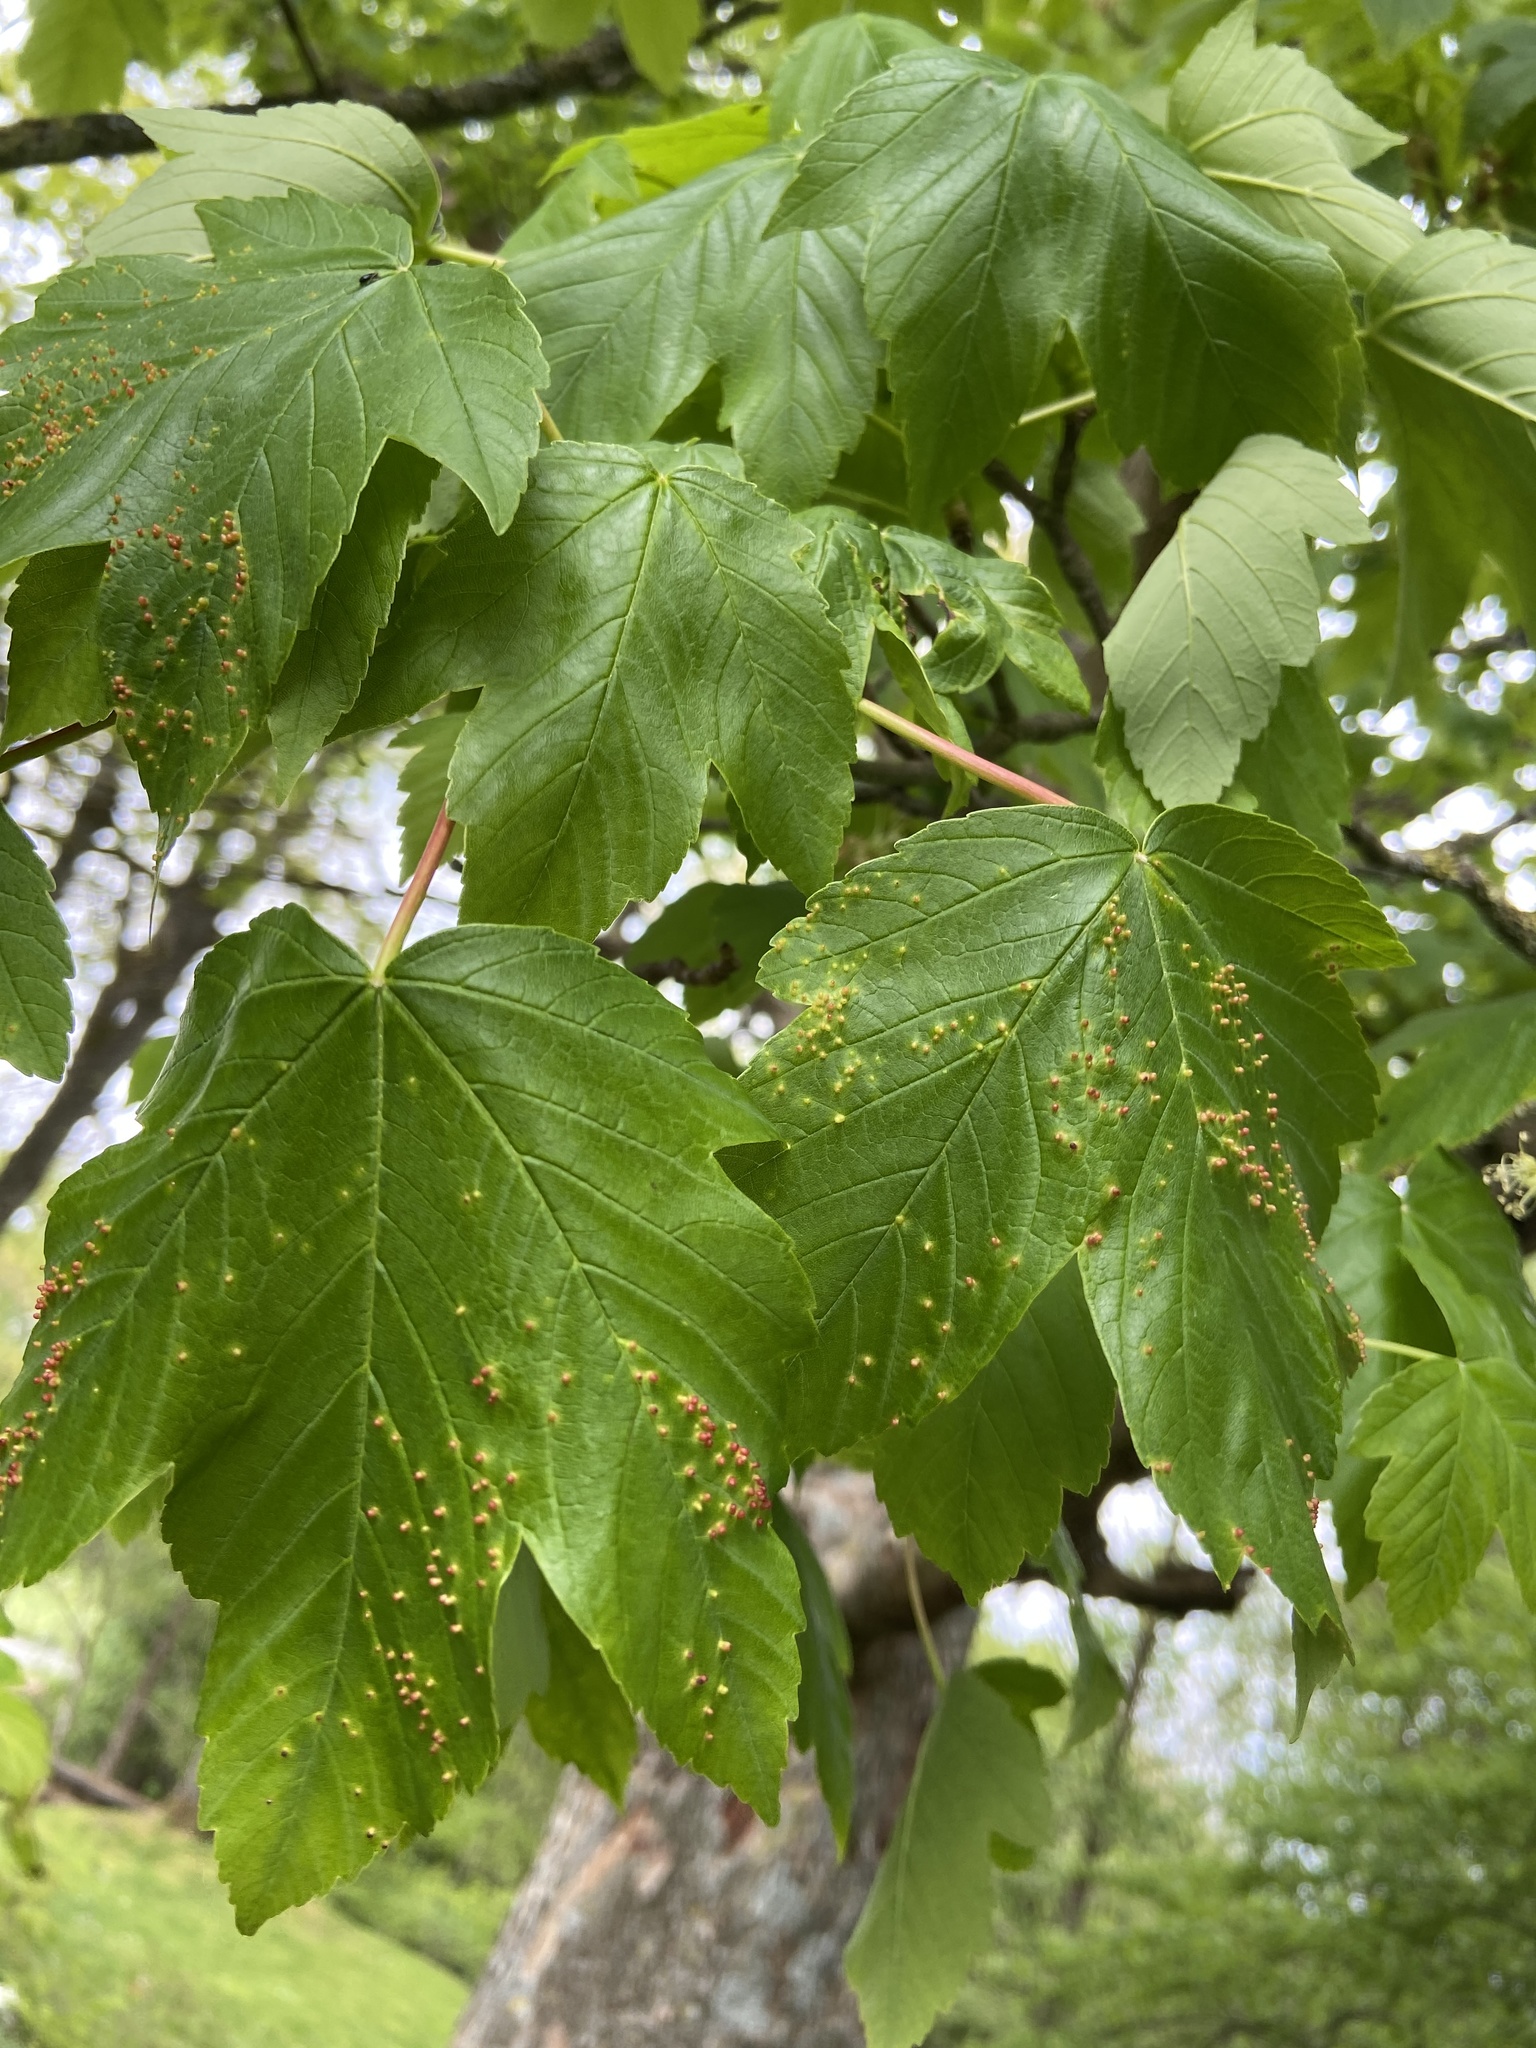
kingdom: Animalia
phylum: Arthropoda
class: Arachnida
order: Trombidiformes
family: Eriophyidae
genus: Aceria
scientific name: Aceria cephaloneus
